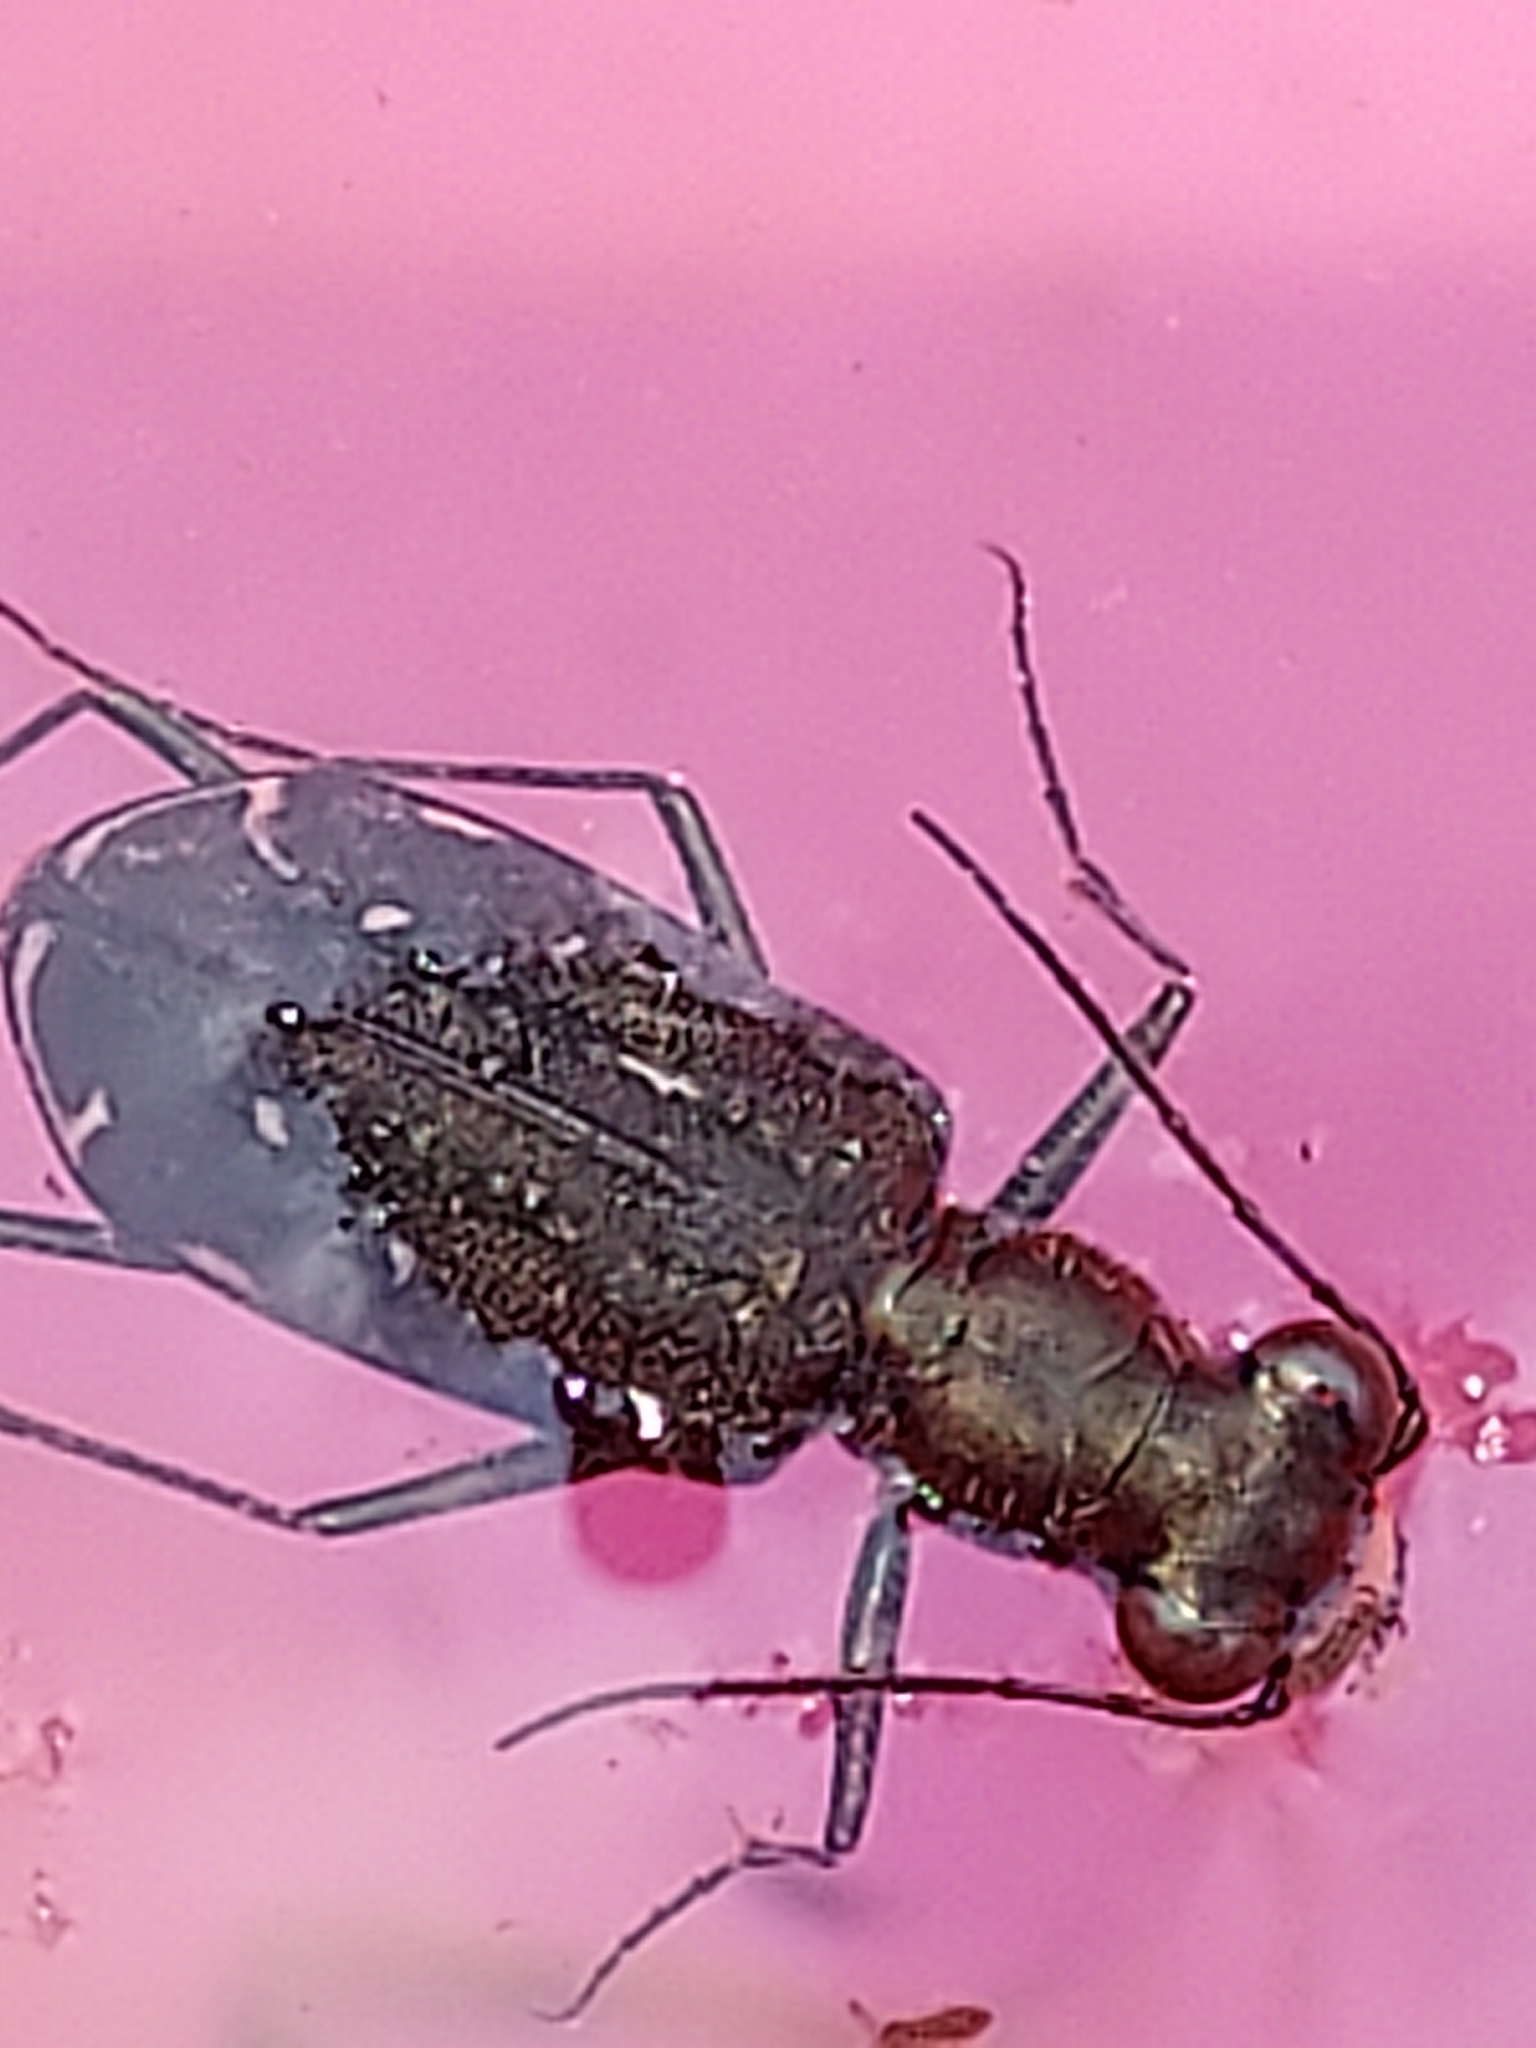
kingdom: Animalia
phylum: Arthropoda
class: Insecta
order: Coleoptera
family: Carabidae
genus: Cicindela
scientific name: Cicindela punctulata
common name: Punctured tiger beetle
